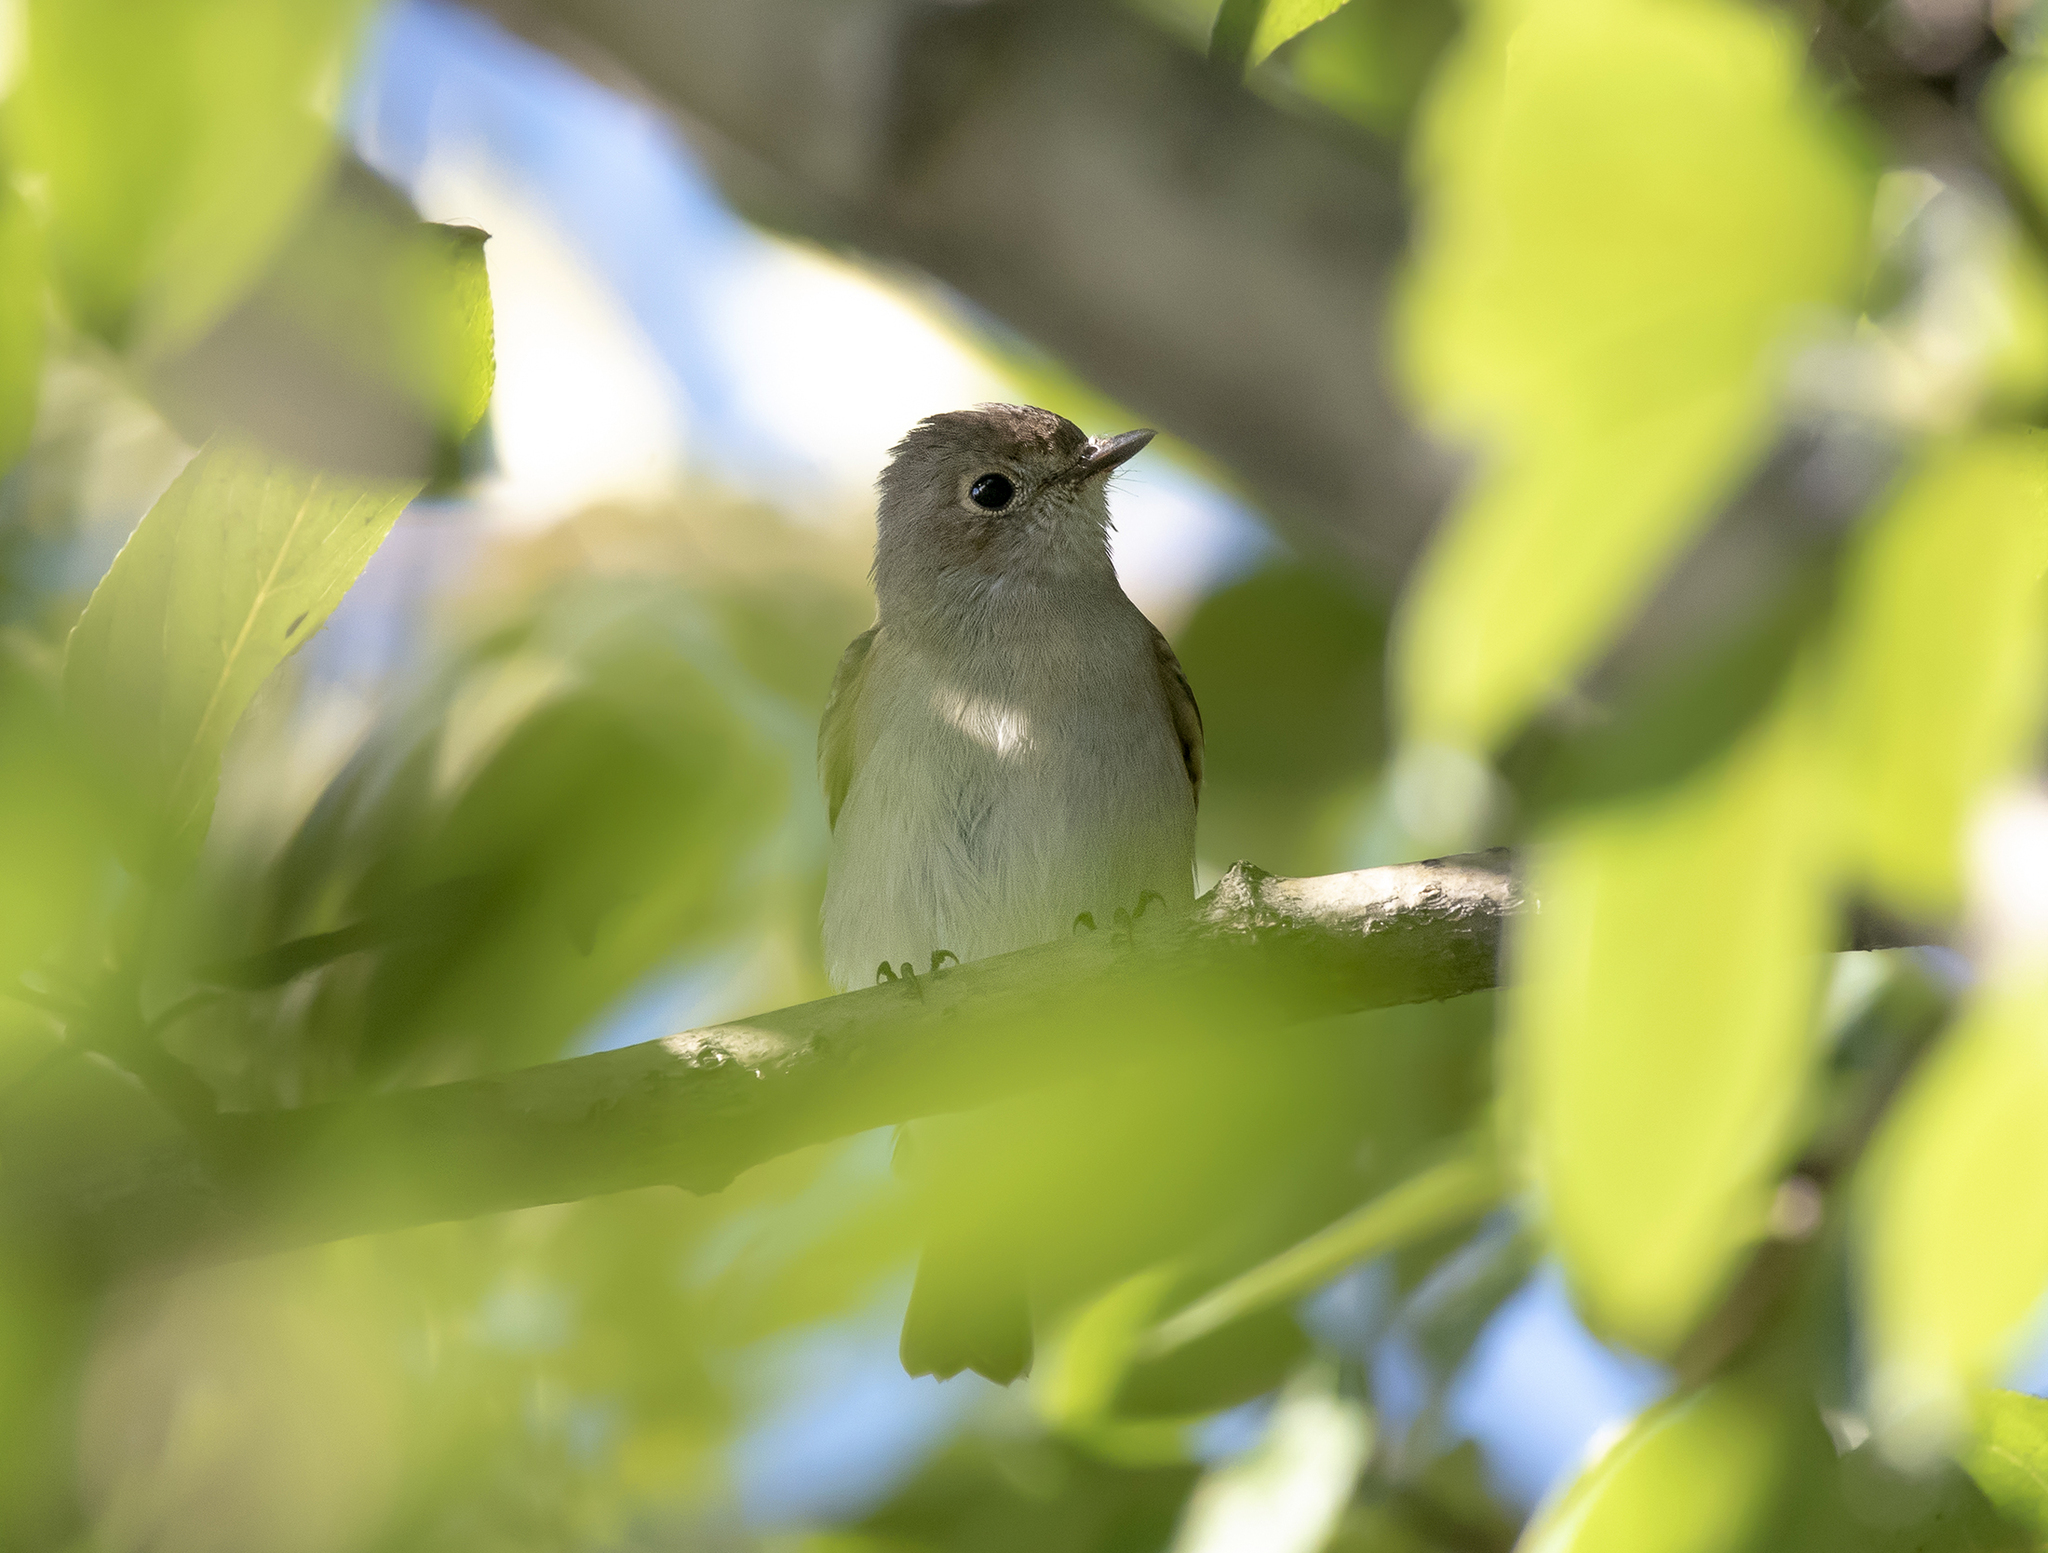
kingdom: Animalia
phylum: Chordata
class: Aves
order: Passeriformes
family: Muscicapidae
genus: Muscicapa
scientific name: Muscicapa latirostris
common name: Asian brown flycatcher
